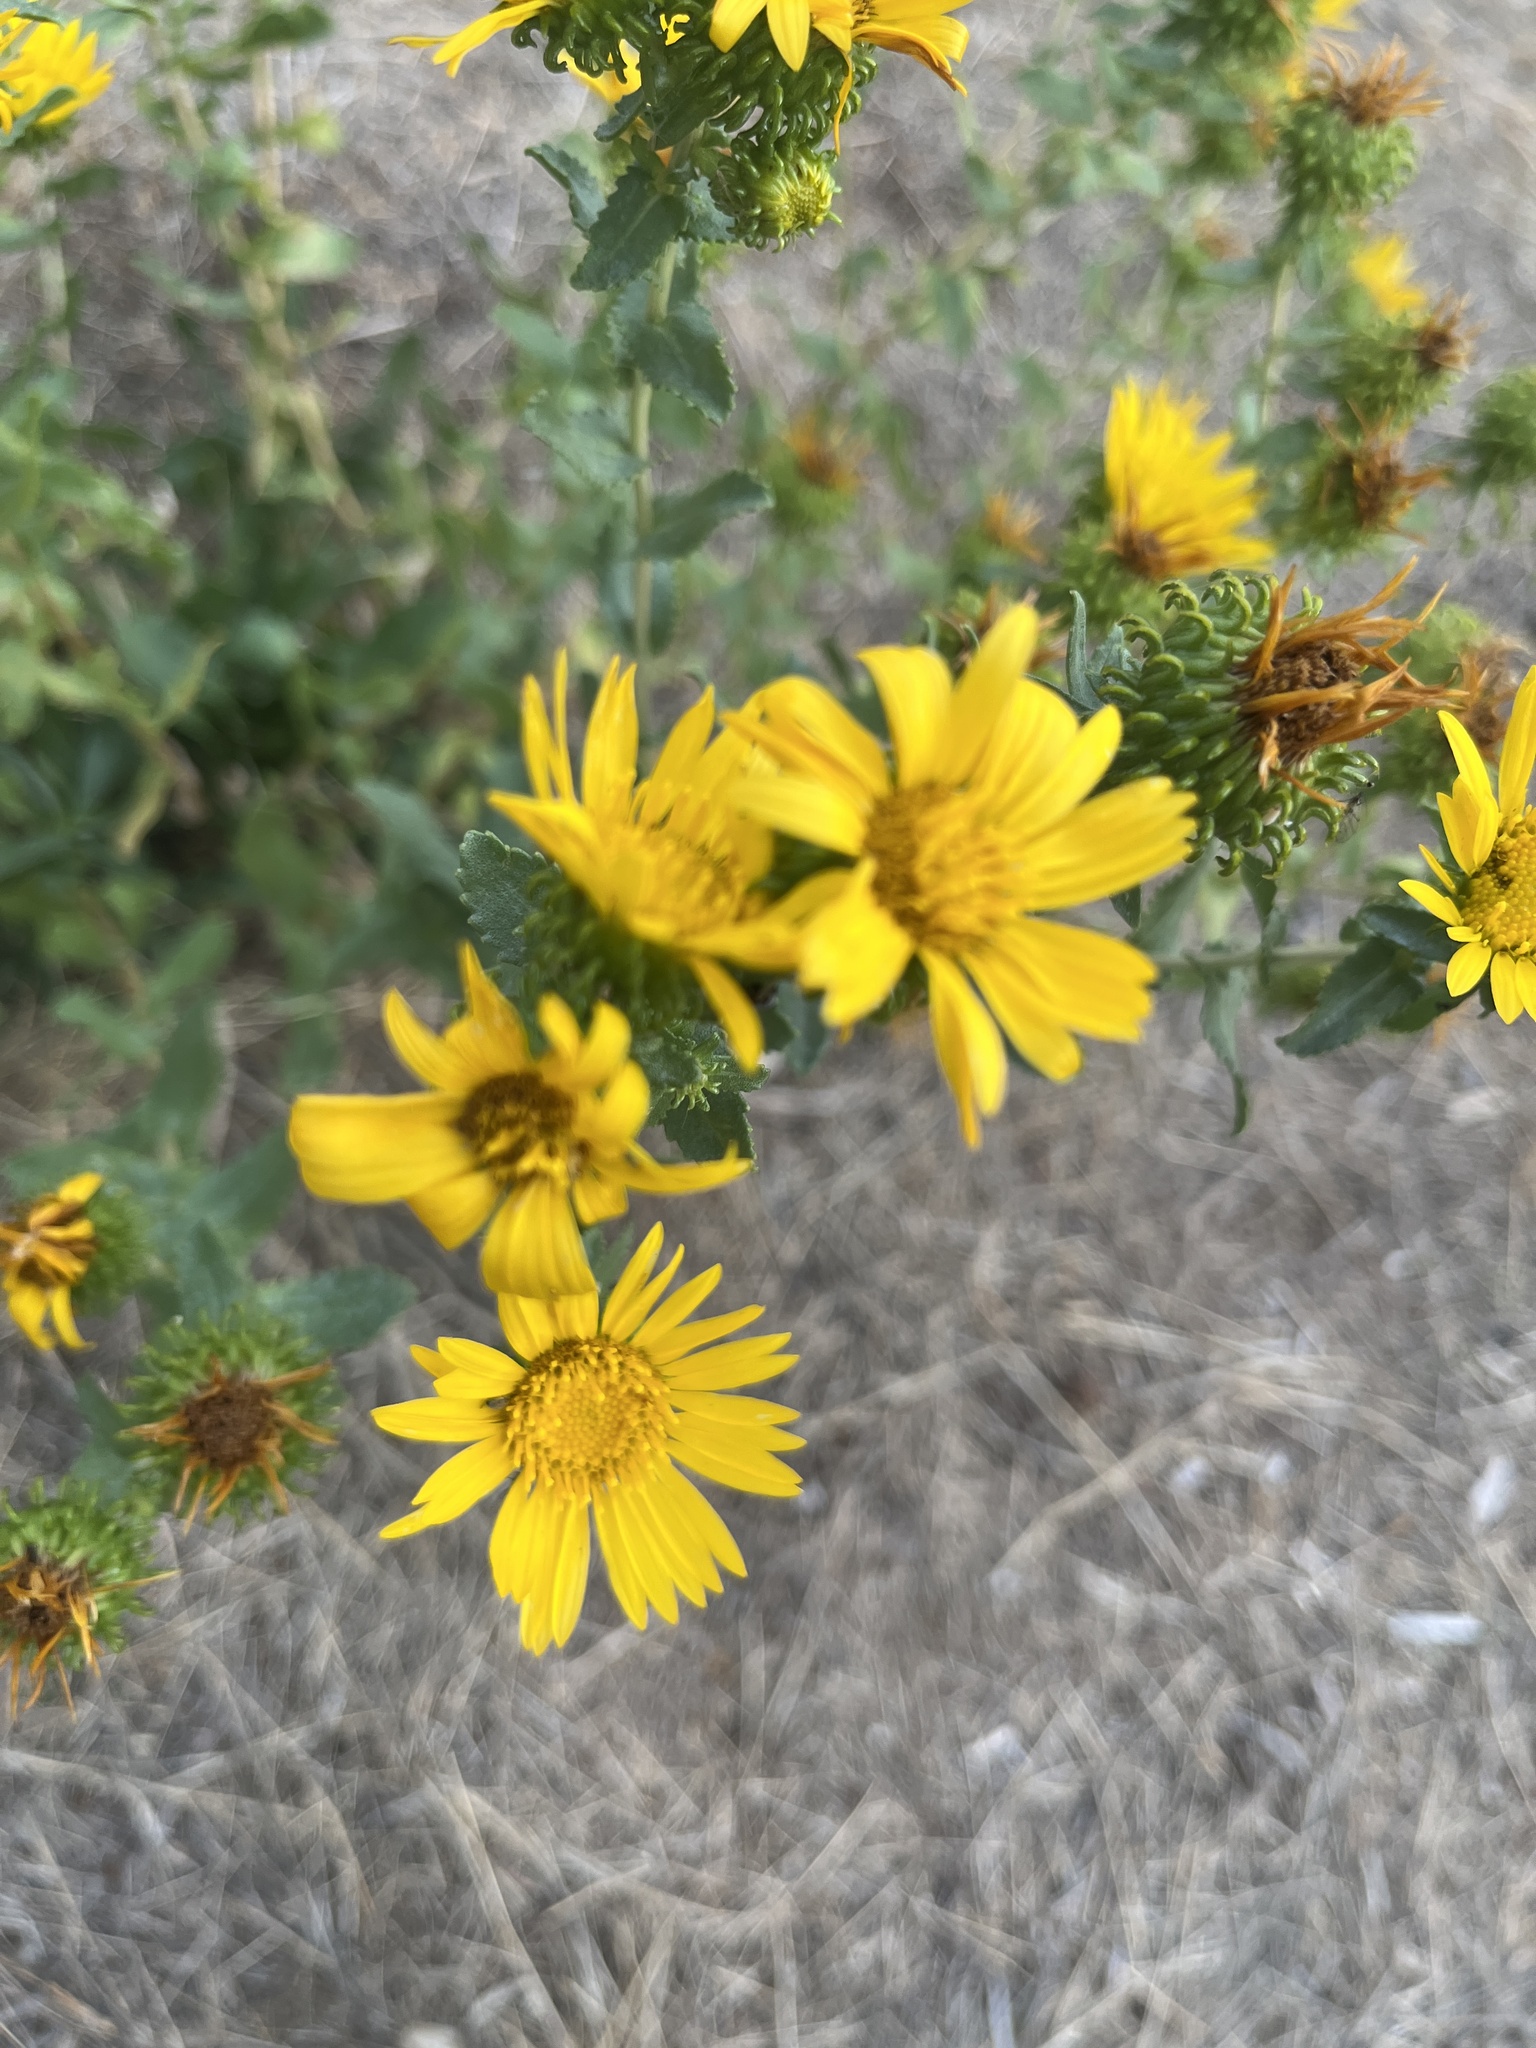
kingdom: Plantae
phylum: Tracheophyta
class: Magnoliopsida
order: Asterales
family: Asteraceae
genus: Grindelia
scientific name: Grindelia squarrosa
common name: Curly-cup gumweed
